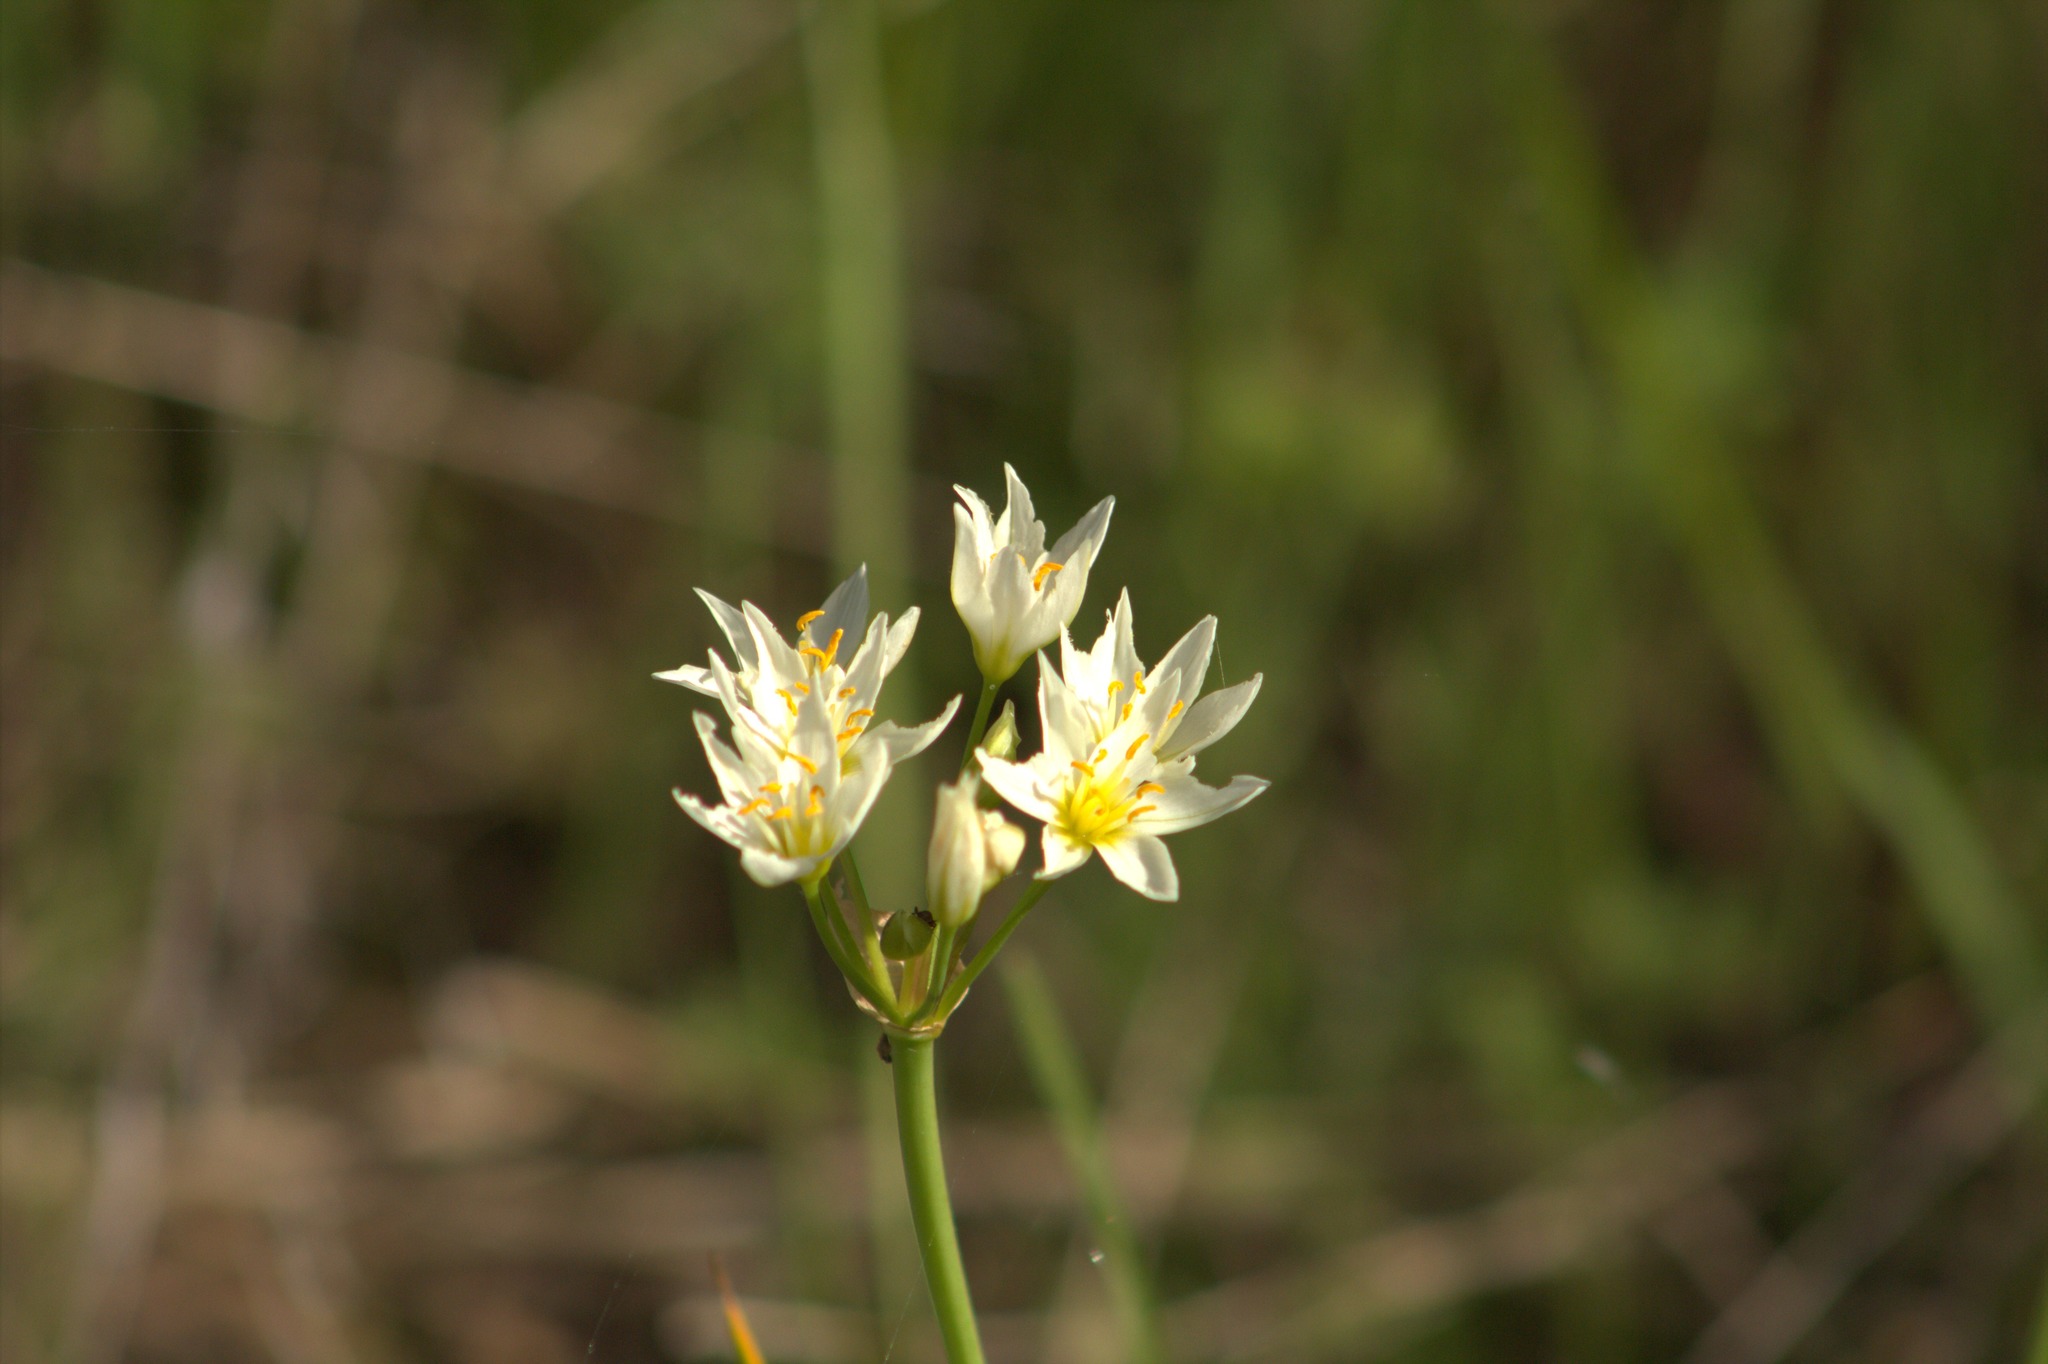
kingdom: Plantae
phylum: Tracheophyta
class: Liliopsida
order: Asparagales
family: Amaryllidaceae
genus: Nothoscordum
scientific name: Nothoscordum bivalve
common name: Crow-poison
